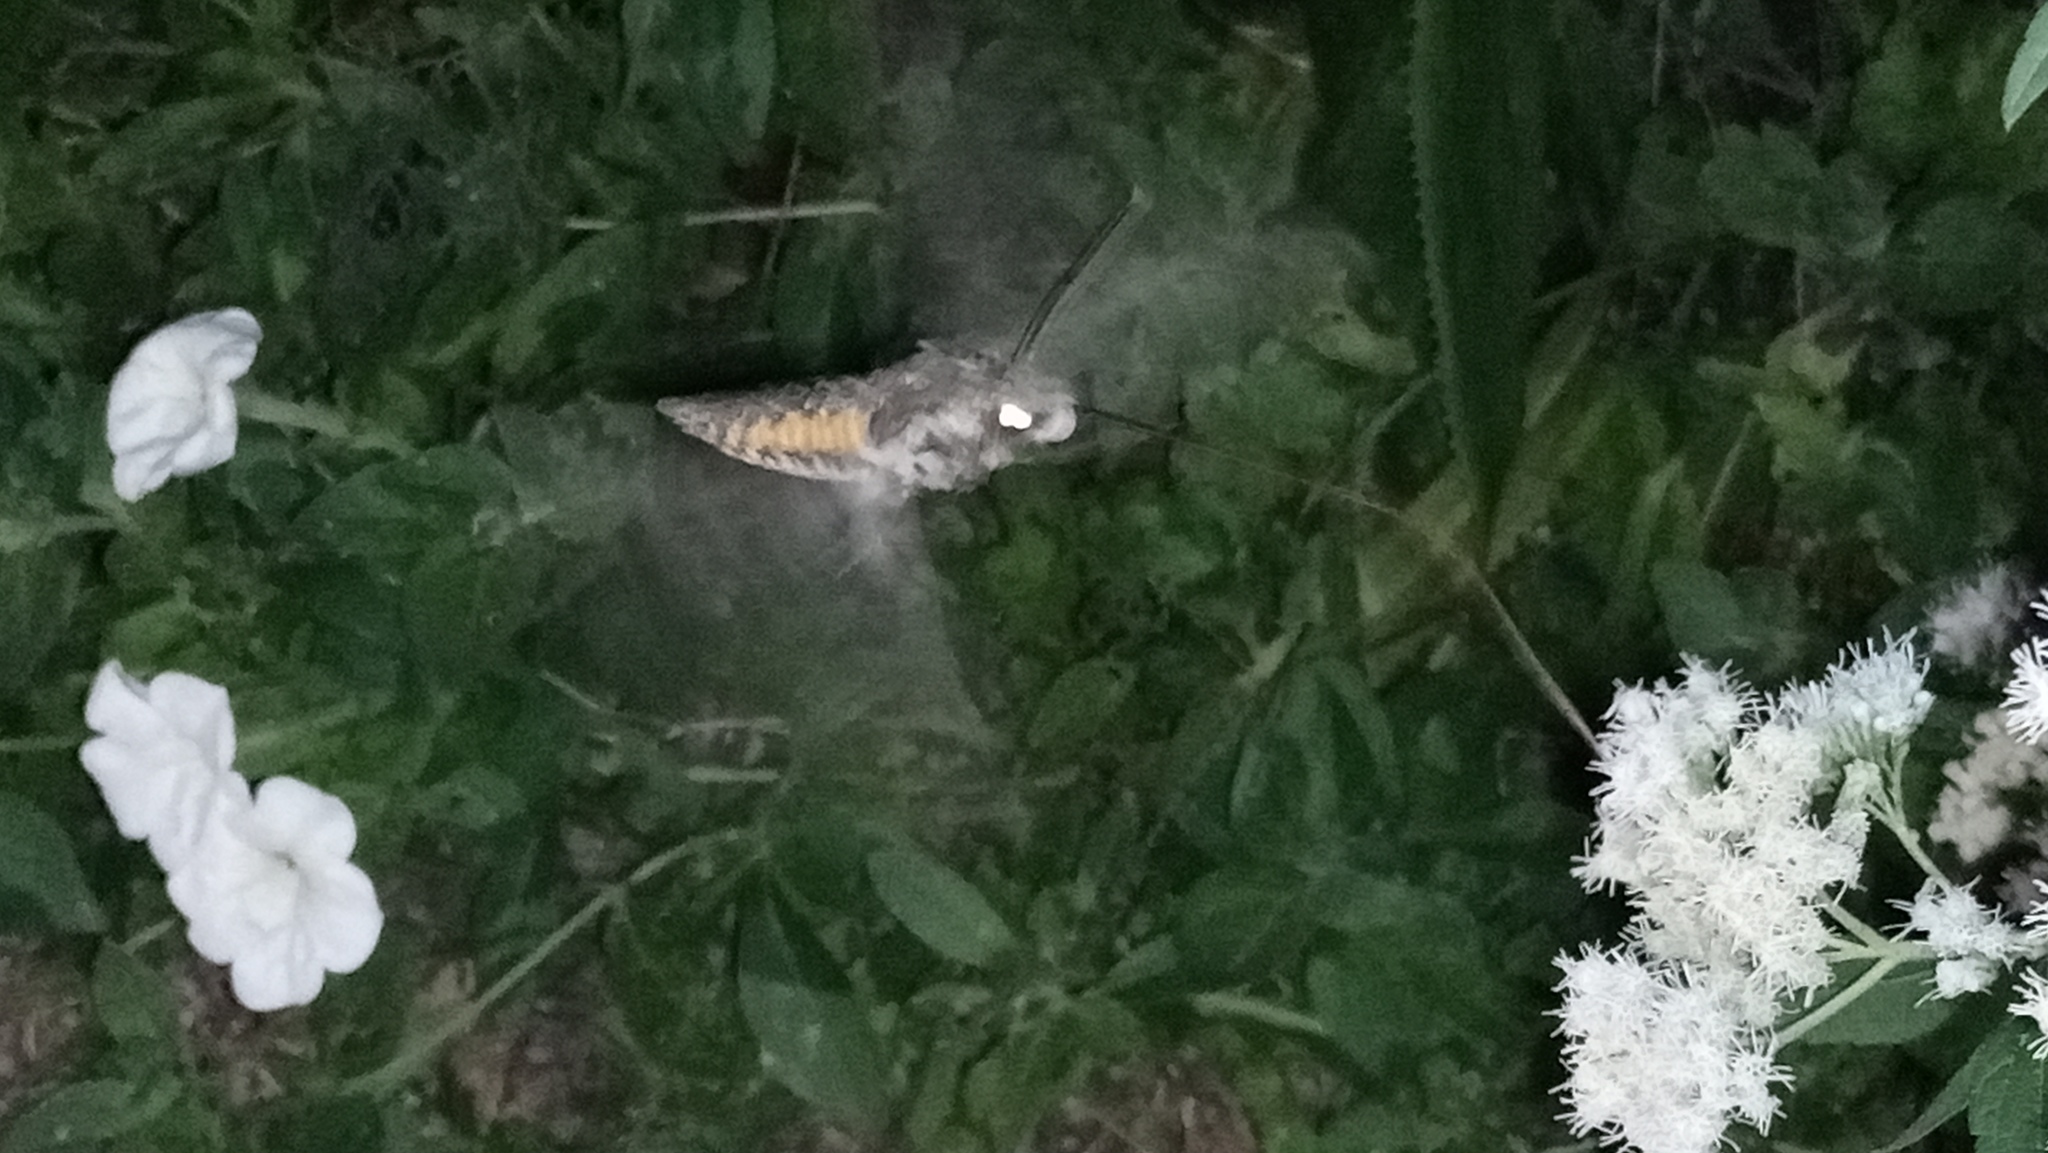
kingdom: Animalia
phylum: Arthropoda
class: Insecta
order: Lepidoptera
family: Sphingidae
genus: Manduca
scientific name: Manduca afflicta
